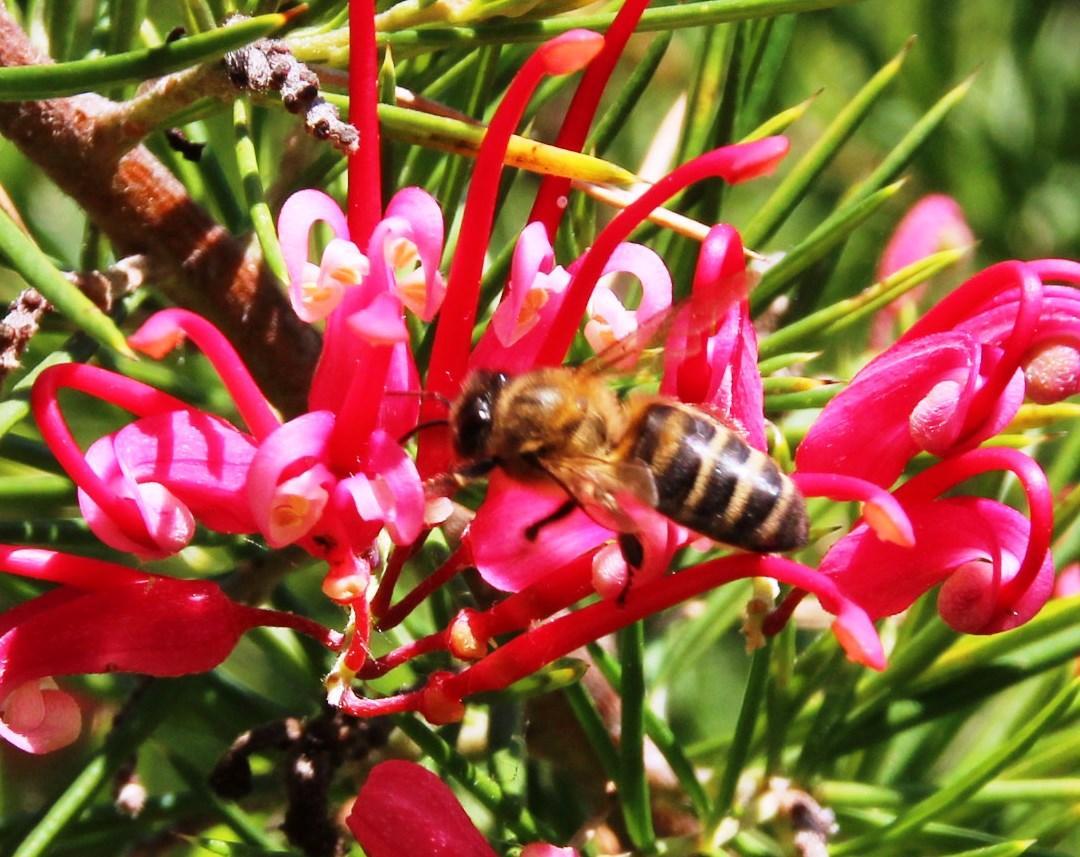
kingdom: Animalia
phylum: Arthropoda
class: Insecta
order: Hymenoptera
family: Apidae
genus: Apis
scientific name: Apis mellifera
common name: Honey bee
